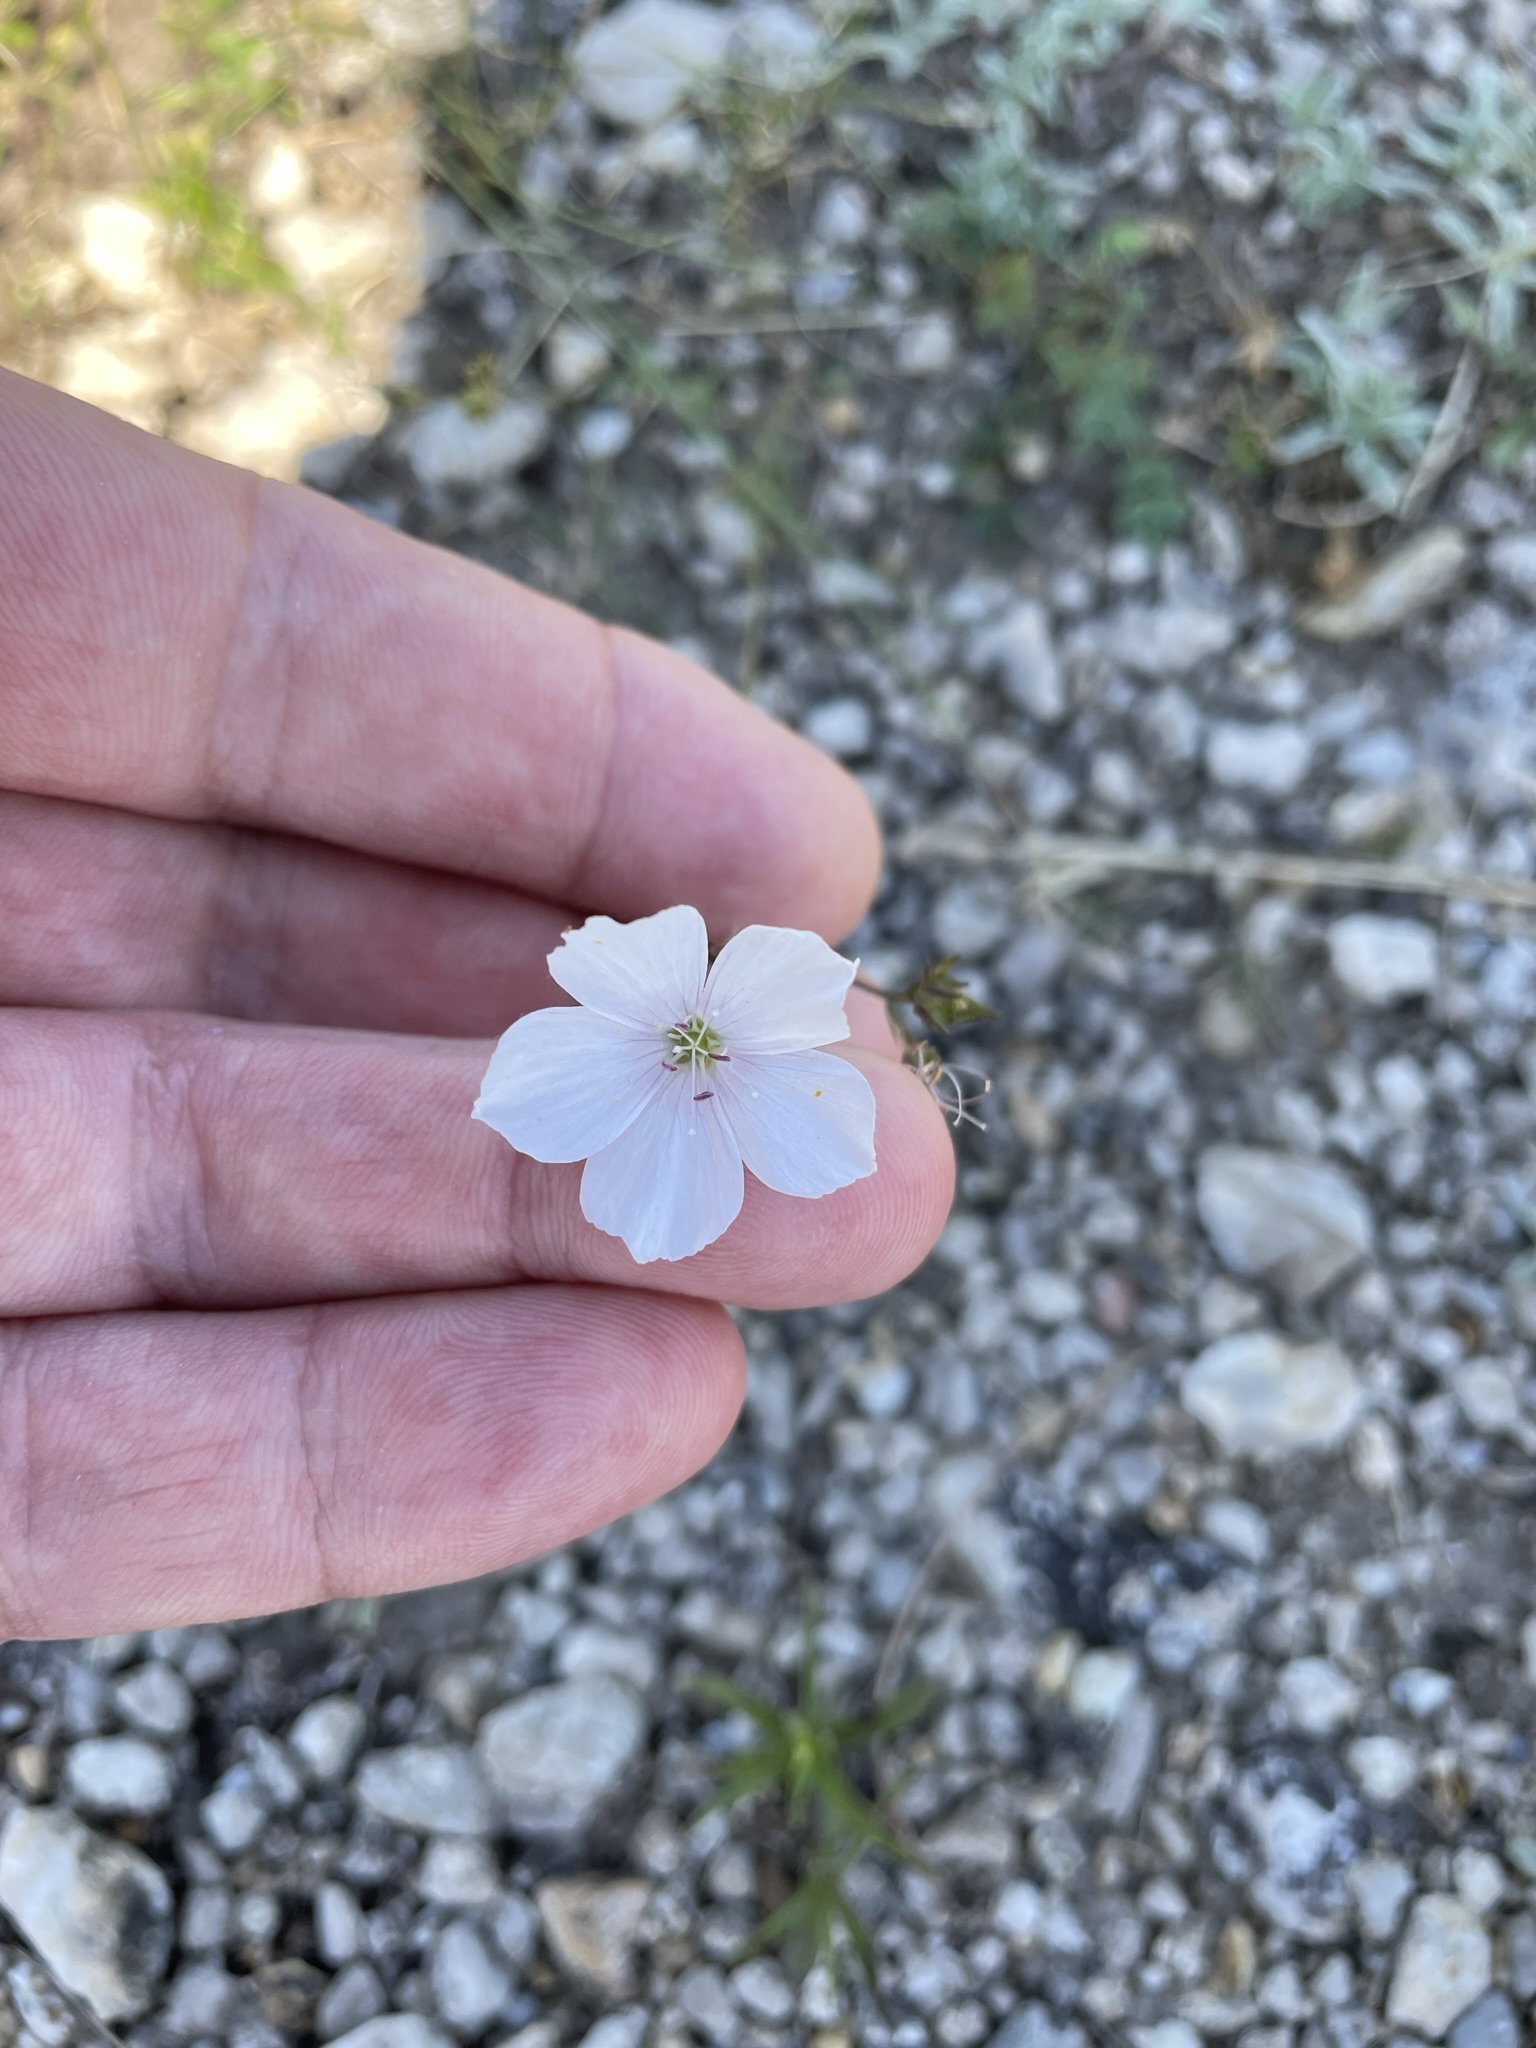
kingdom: Plantae
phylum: Tracheophyta
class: Magnoliopsida
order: Malpighiales
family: Linaceae
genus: Linum
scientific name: Linum tenuifolium
